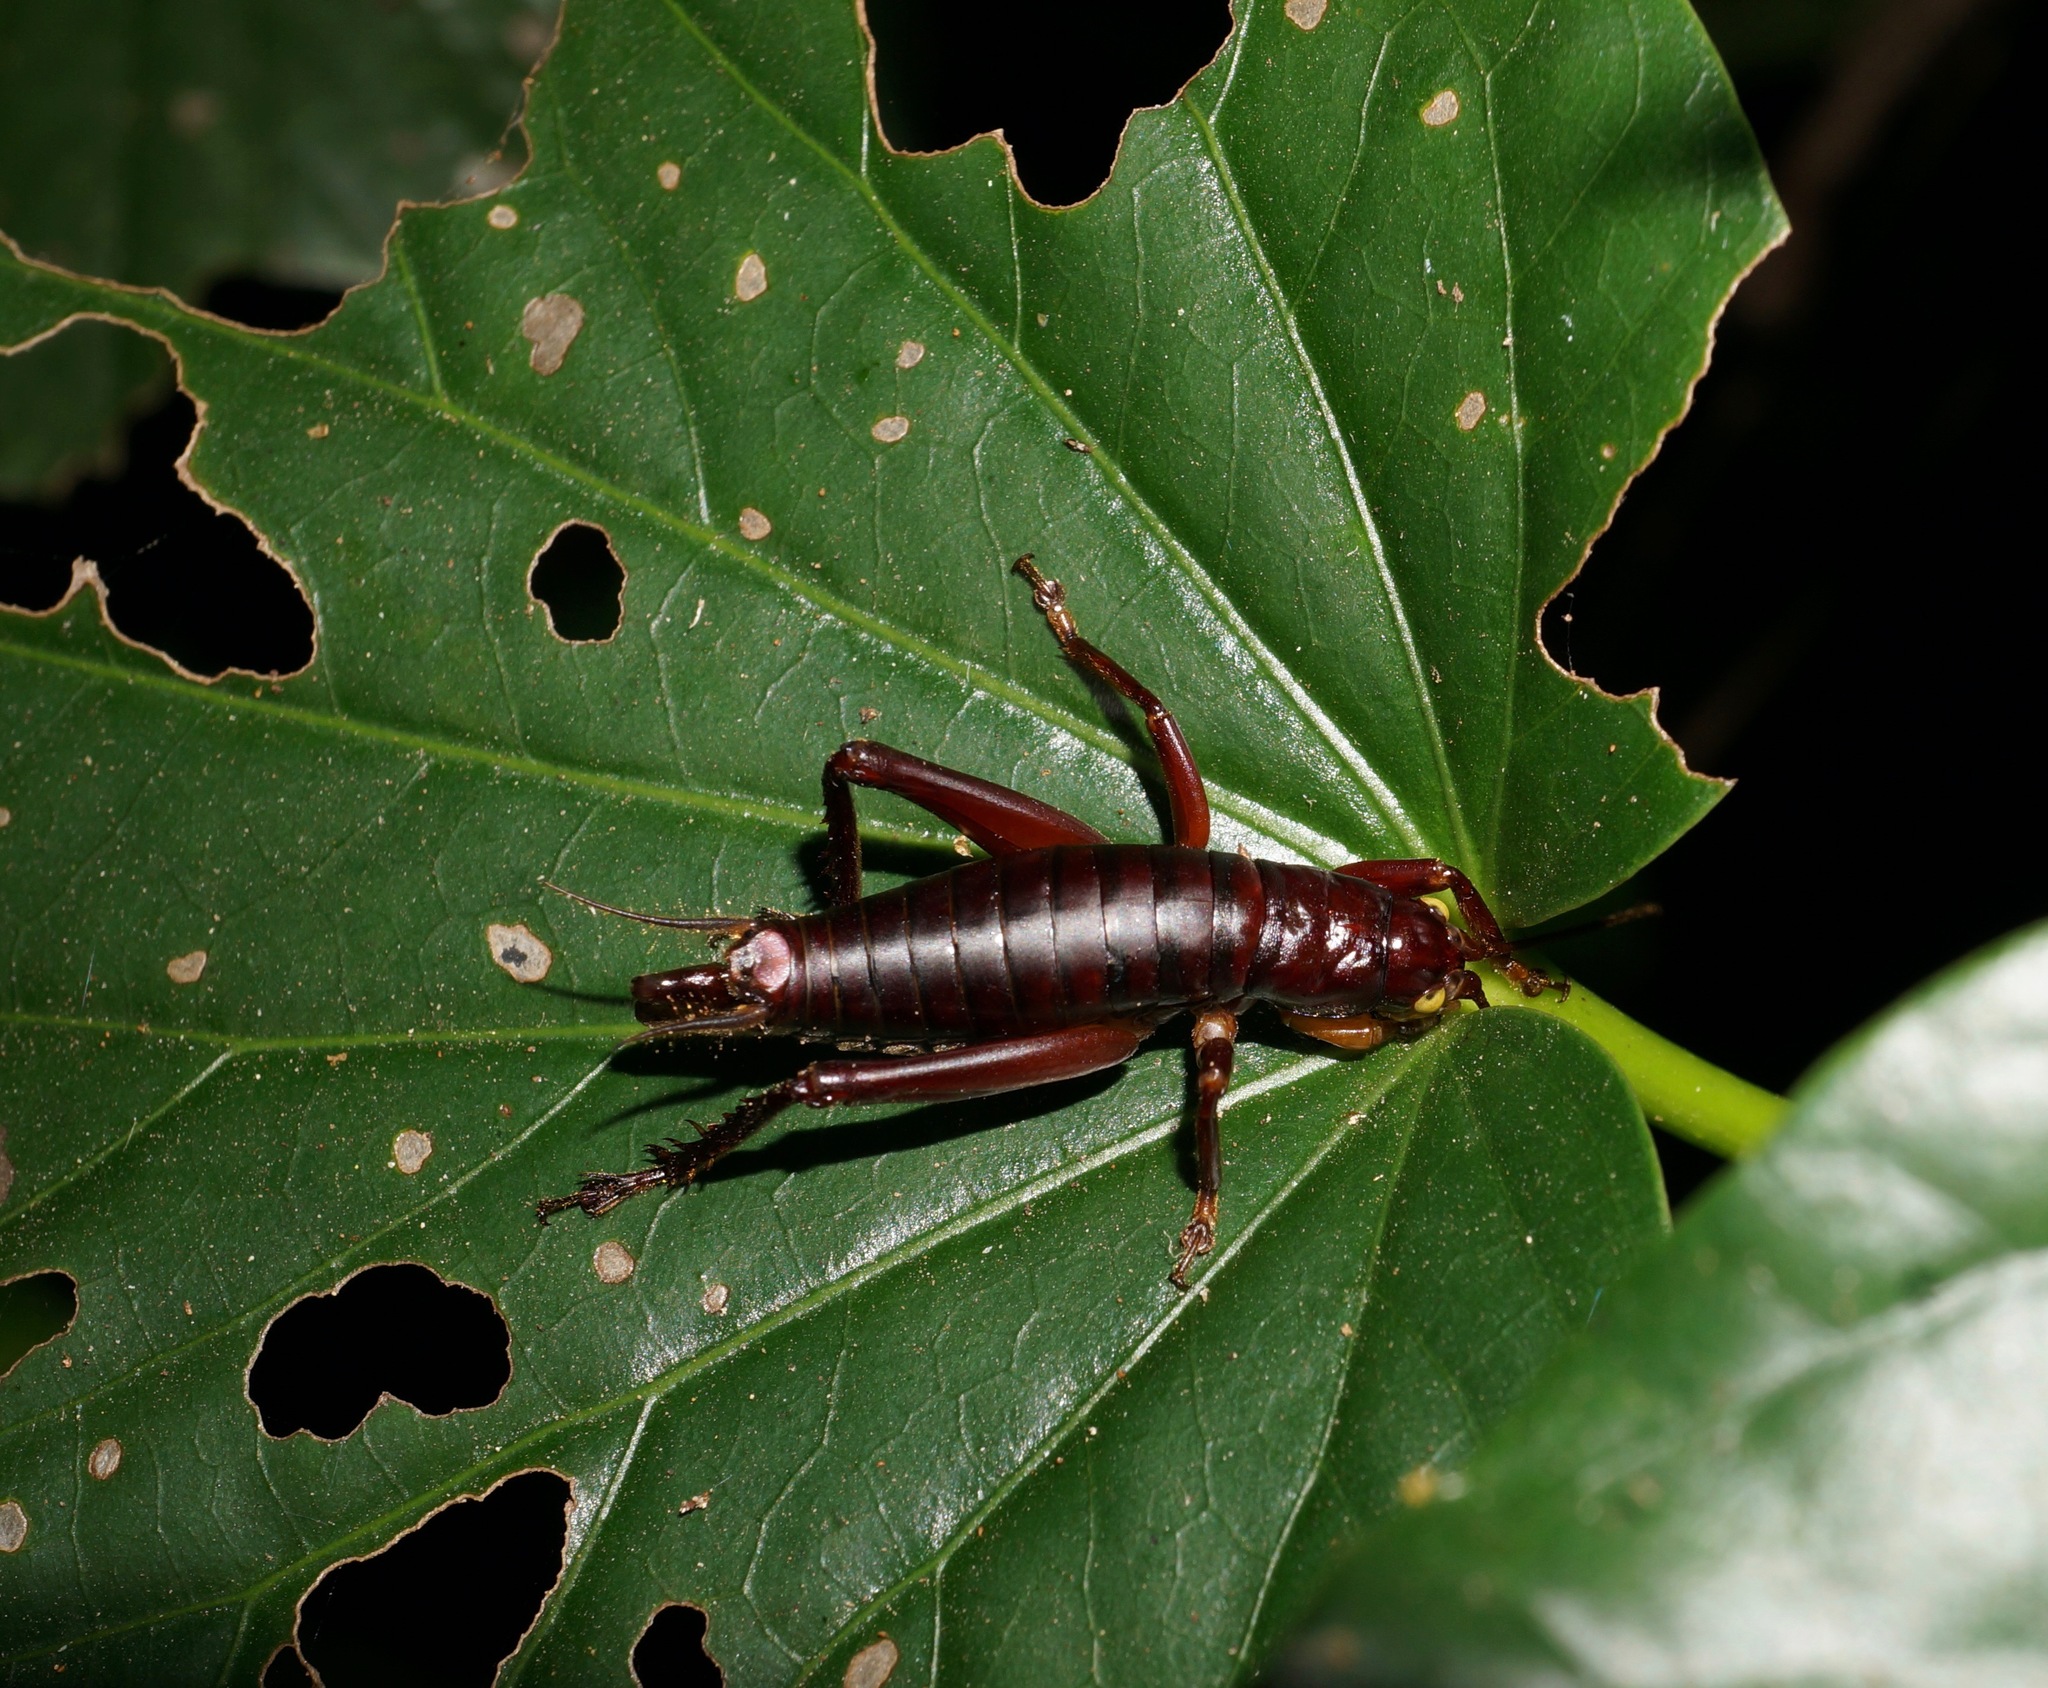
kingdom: Animalia
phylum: Arthropoda
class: Insecta
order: Orthoptera
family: Gryllidae
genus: Insulascirtus
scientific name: Insulascirtus christiani
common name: Fletcher christian's short-winged cricket
